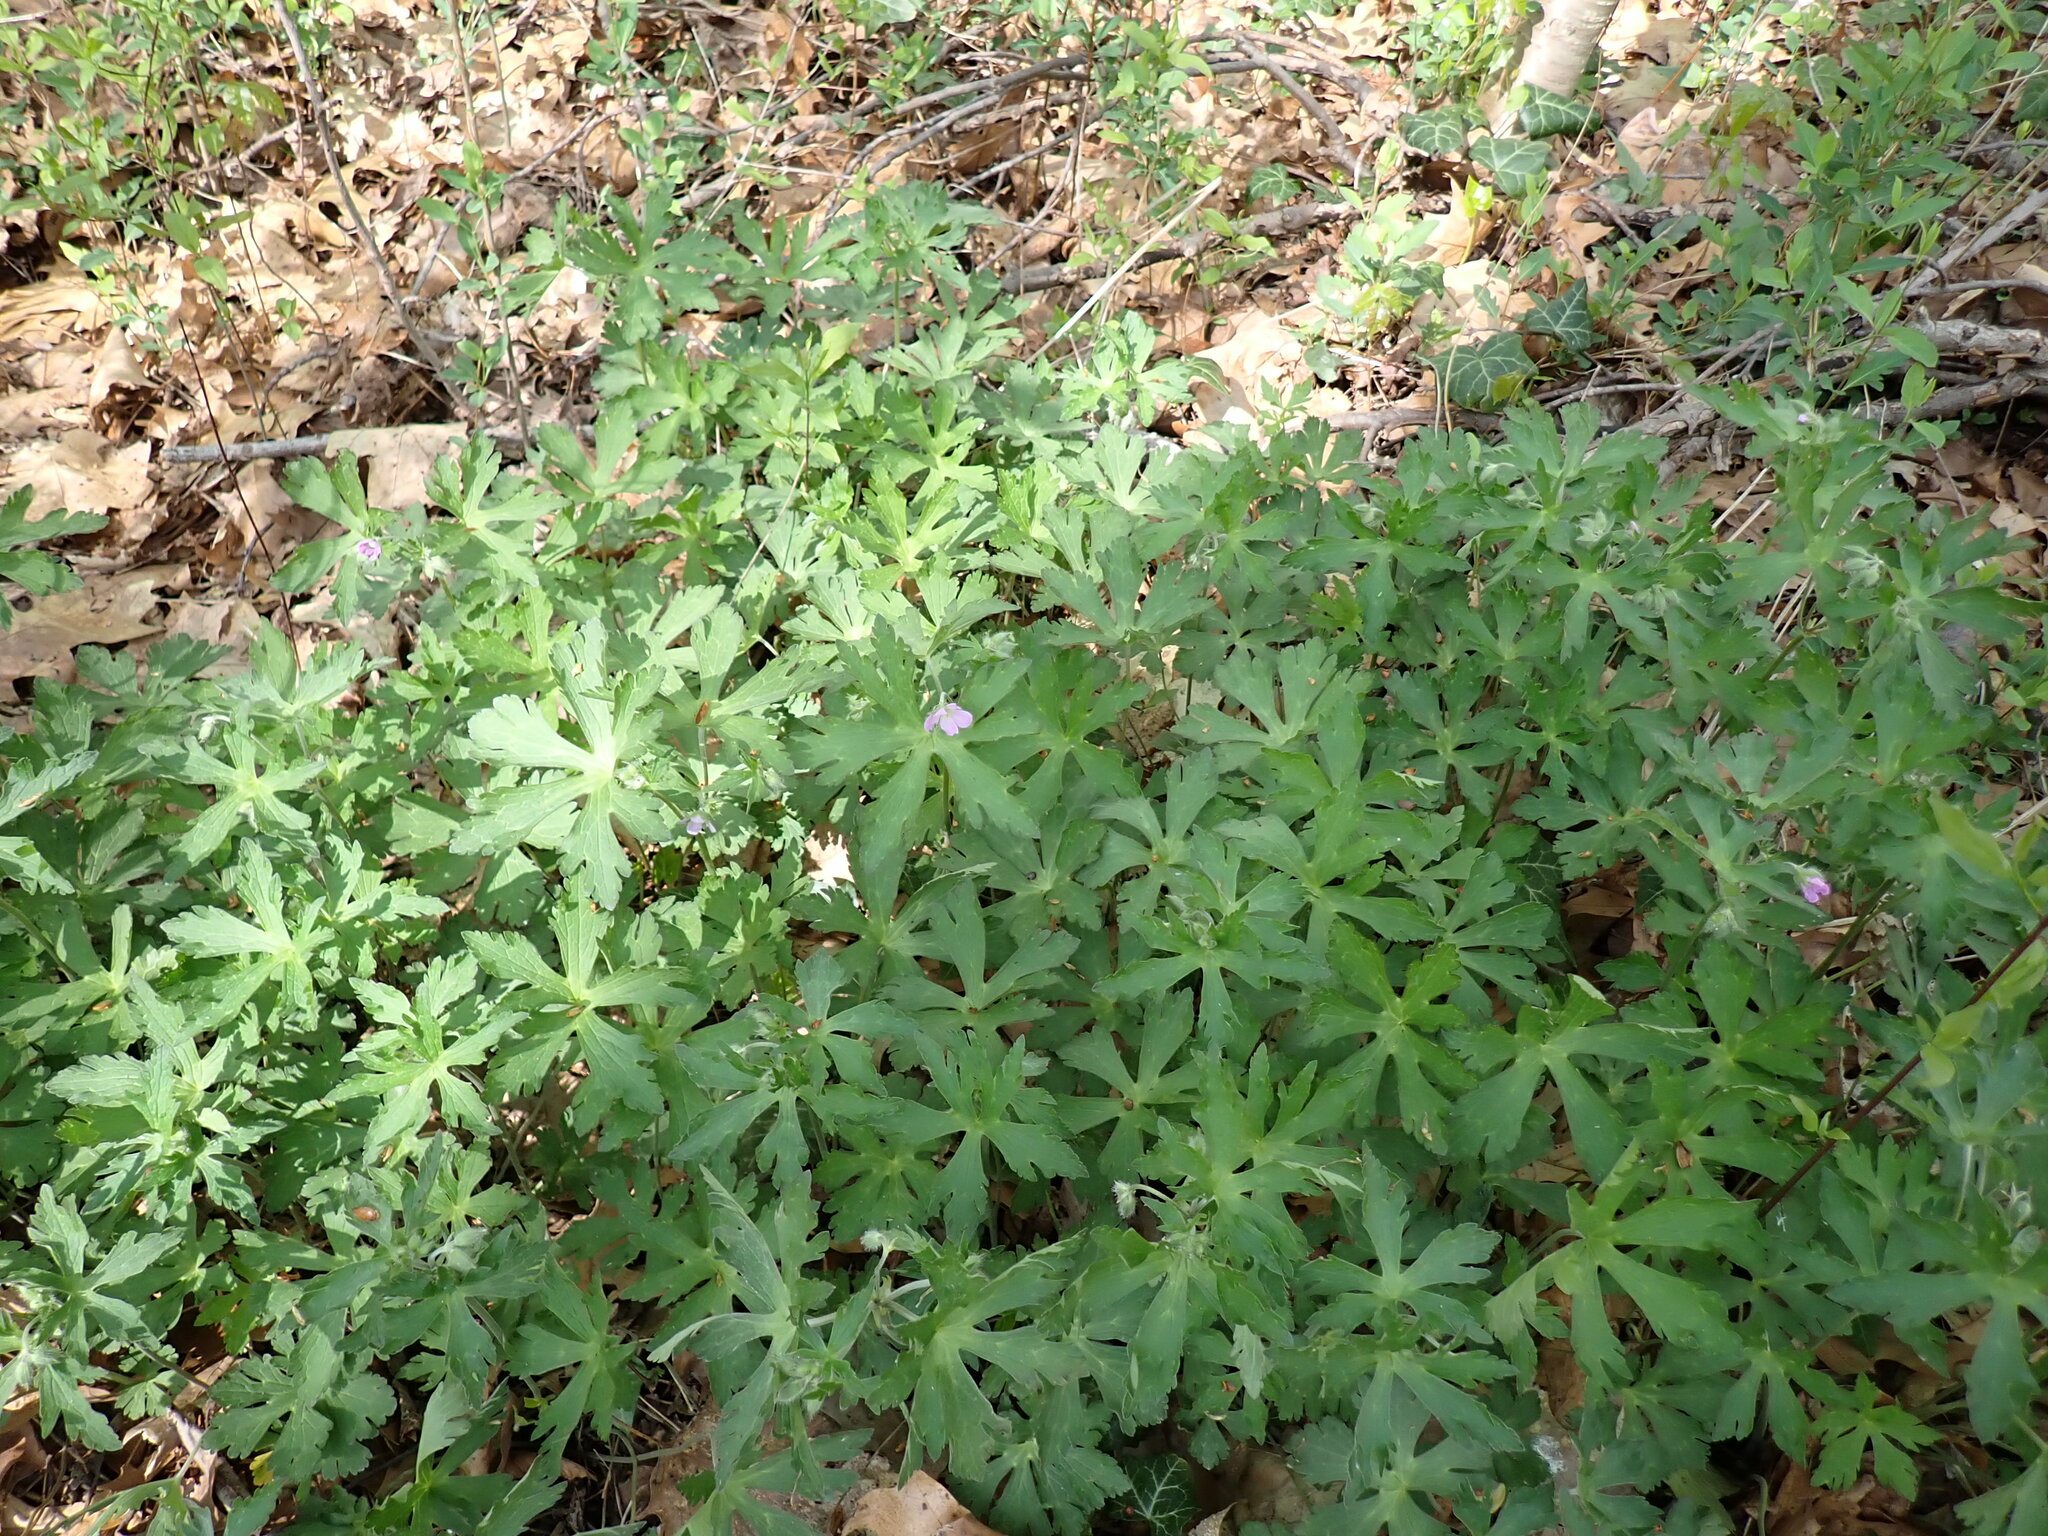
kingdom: Plantae
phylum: Tracheophyta
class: Magnoliopsida
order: Geraniales
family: Geraniaceae
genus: Geranium
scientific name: Geranium maculatum
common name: Spotted geranium
